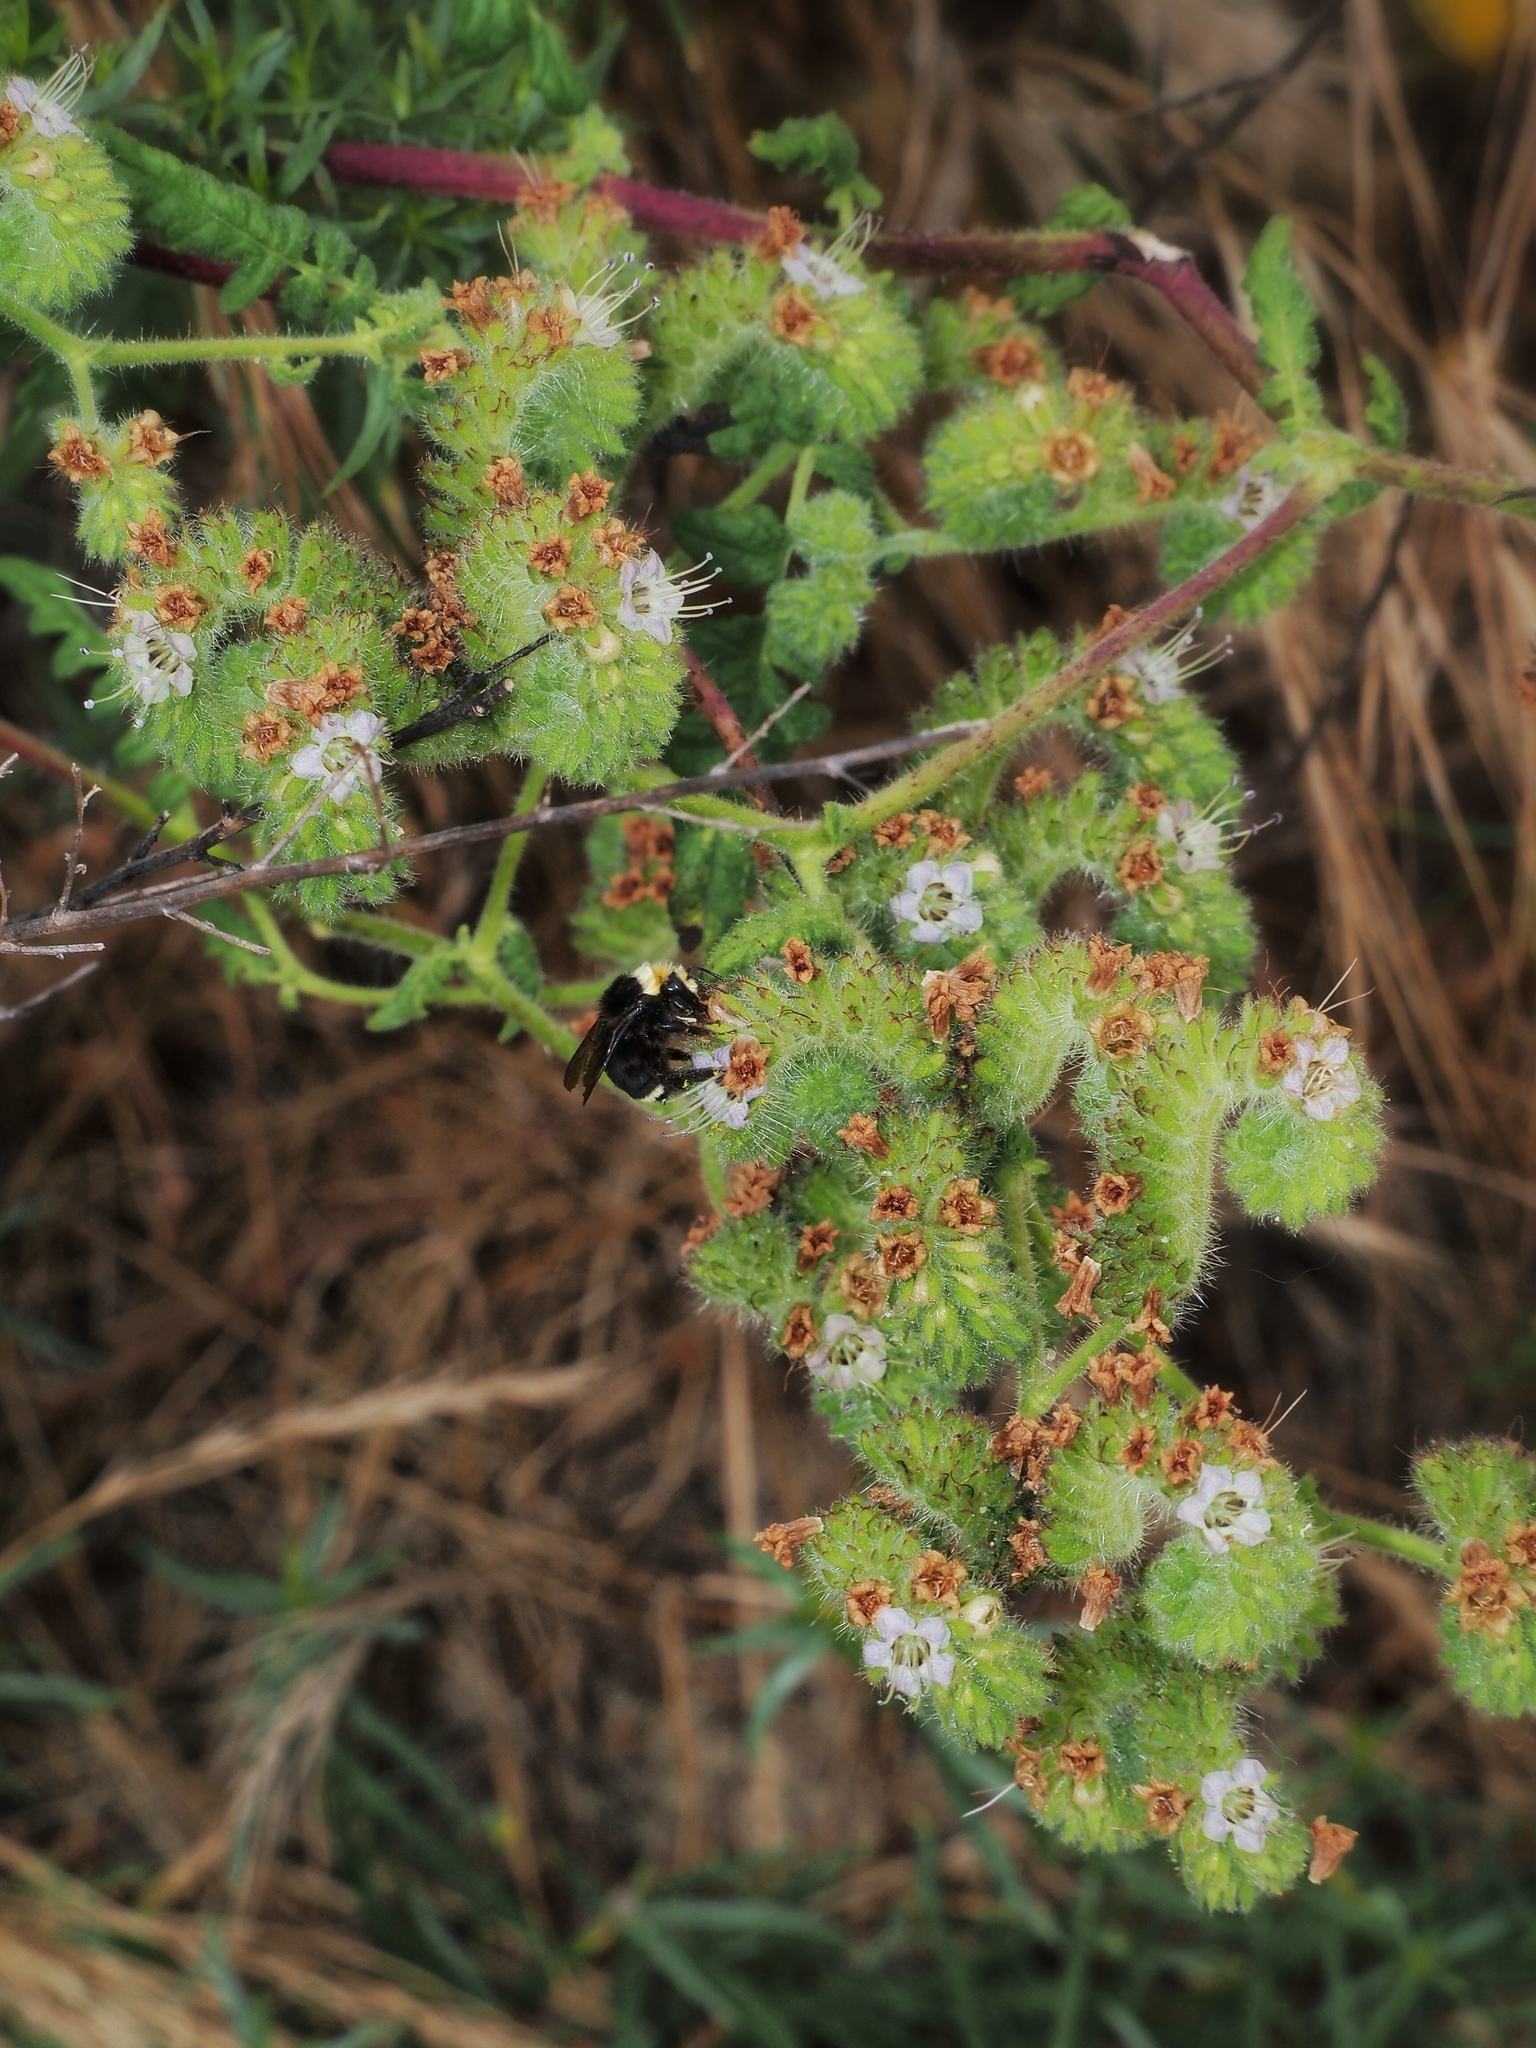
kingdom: Animalia
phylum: Arthropoda
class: Insecta
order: Hymenoptera
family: Apidae
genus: Bombus
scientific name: Bombus vosnesenskii
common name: Vosnesensky bumble bee
